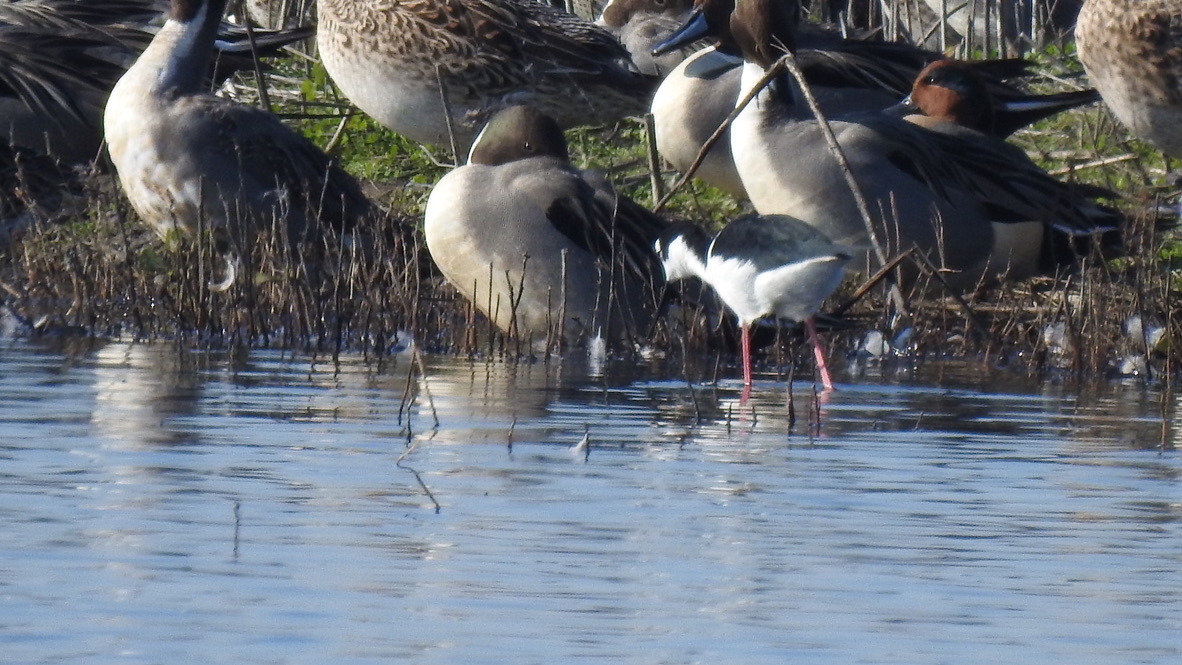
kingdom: Animalia
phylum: Chordata
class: Aves
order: Anseriformes
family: Anatidae
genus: Anas
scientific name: Anas acuta
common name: Northern pintail
